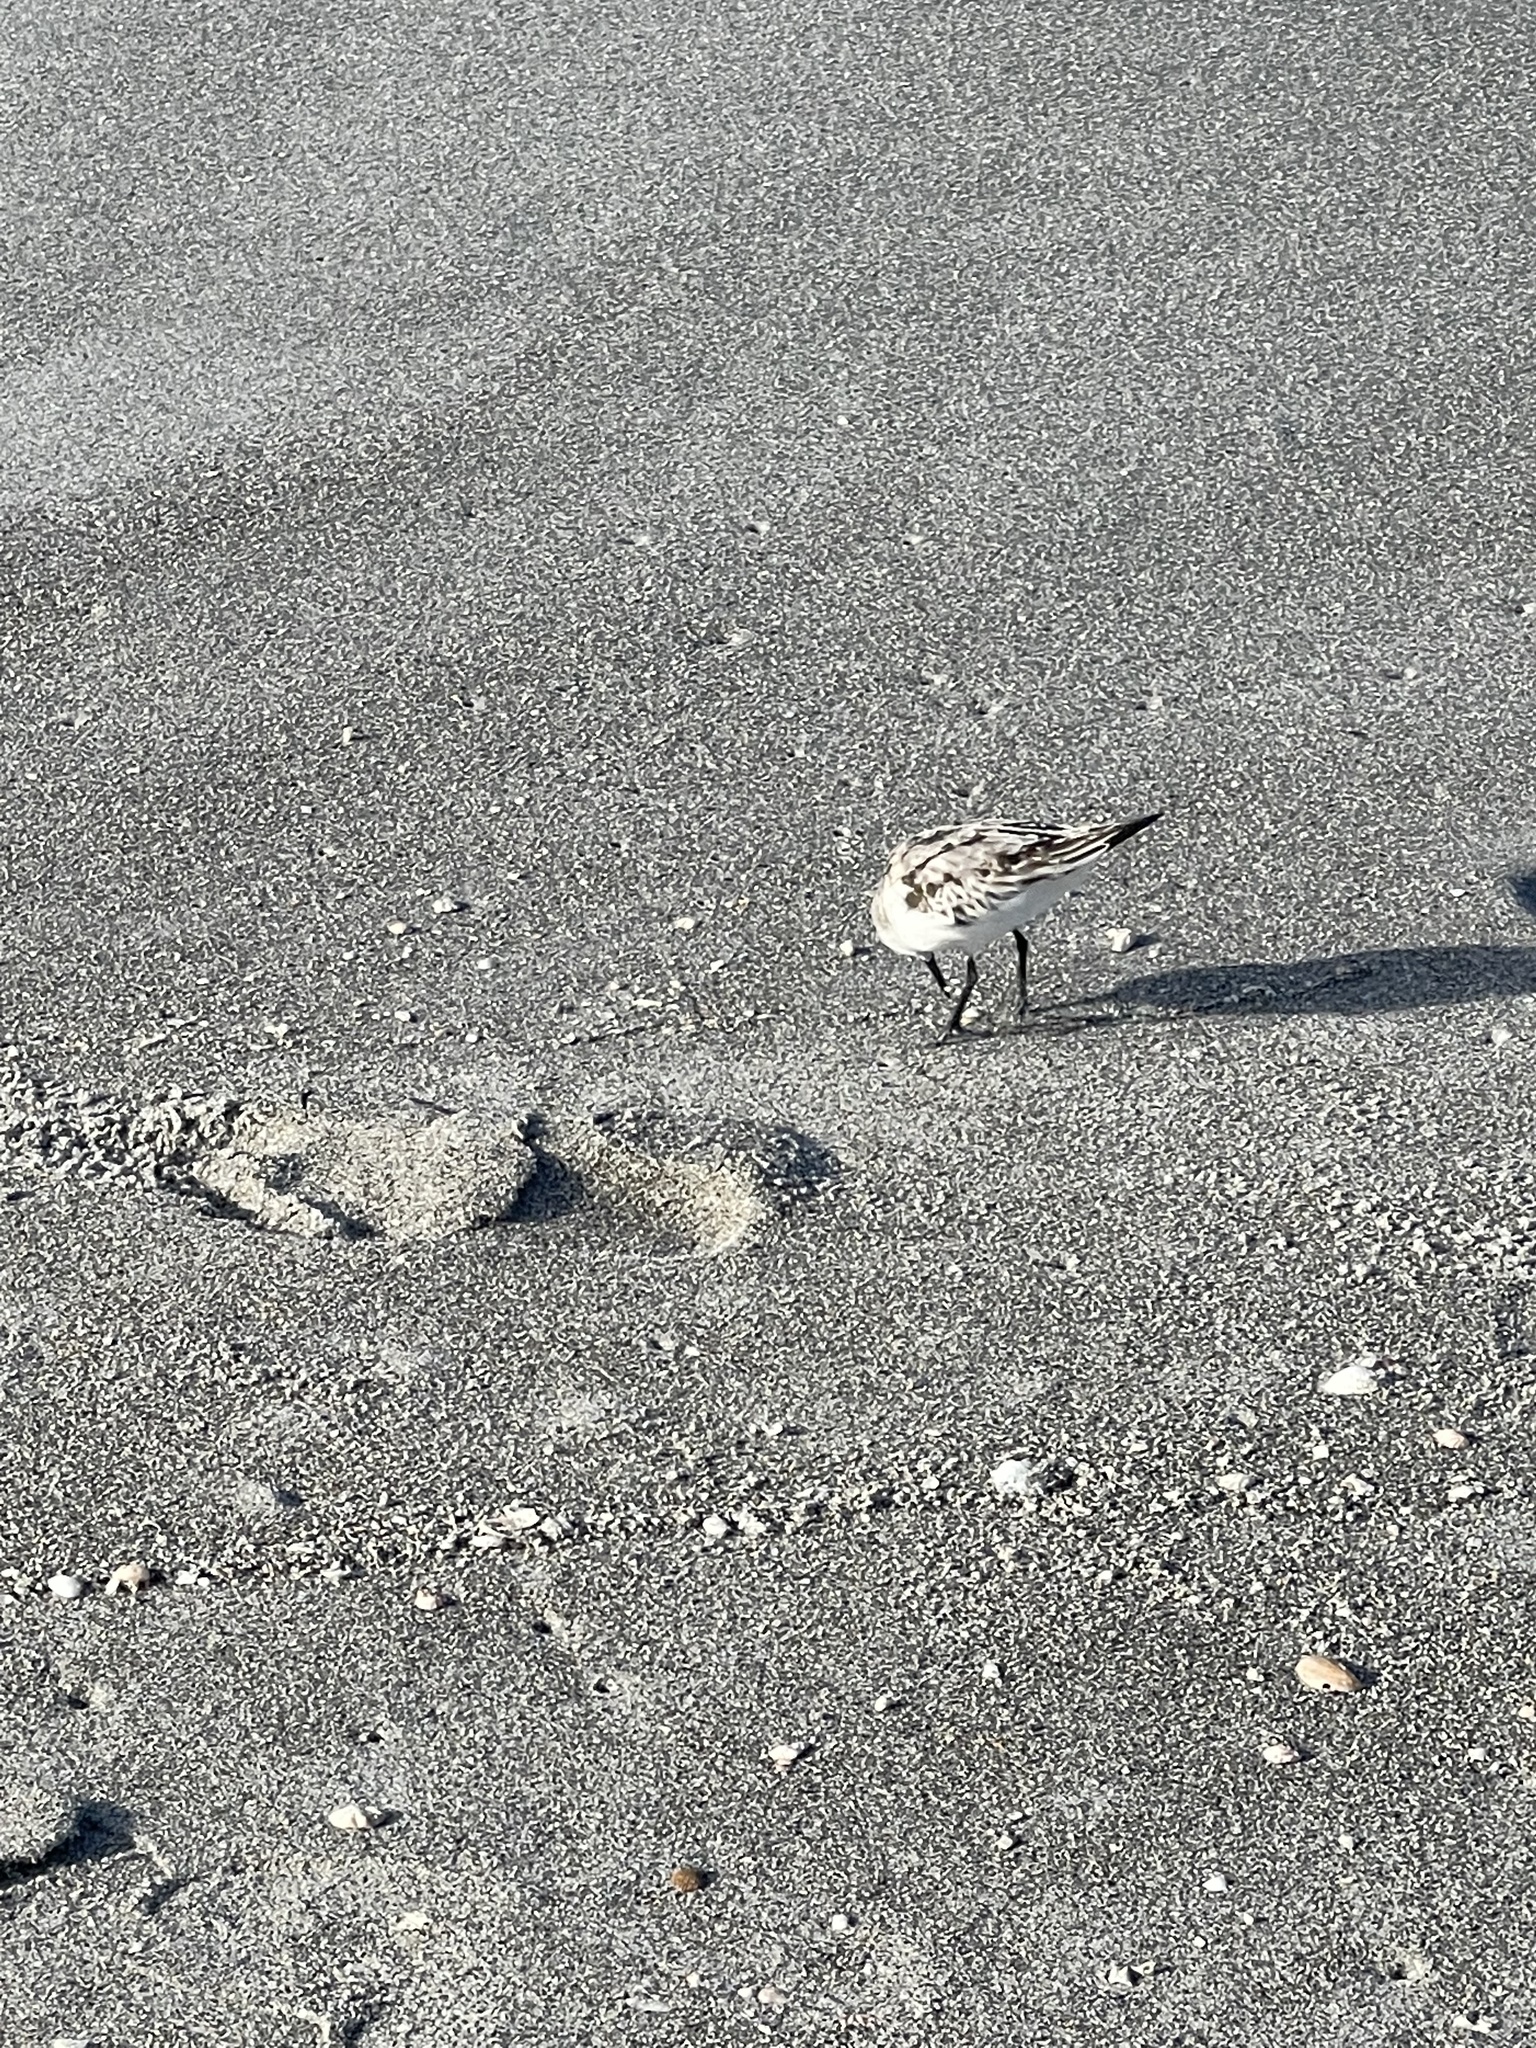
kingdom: Animalia
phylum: Chordata
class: Aves
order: Charadriiformes
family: Scolopacidae
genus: Calidris
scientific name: Calidris alba
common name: Sanderling
